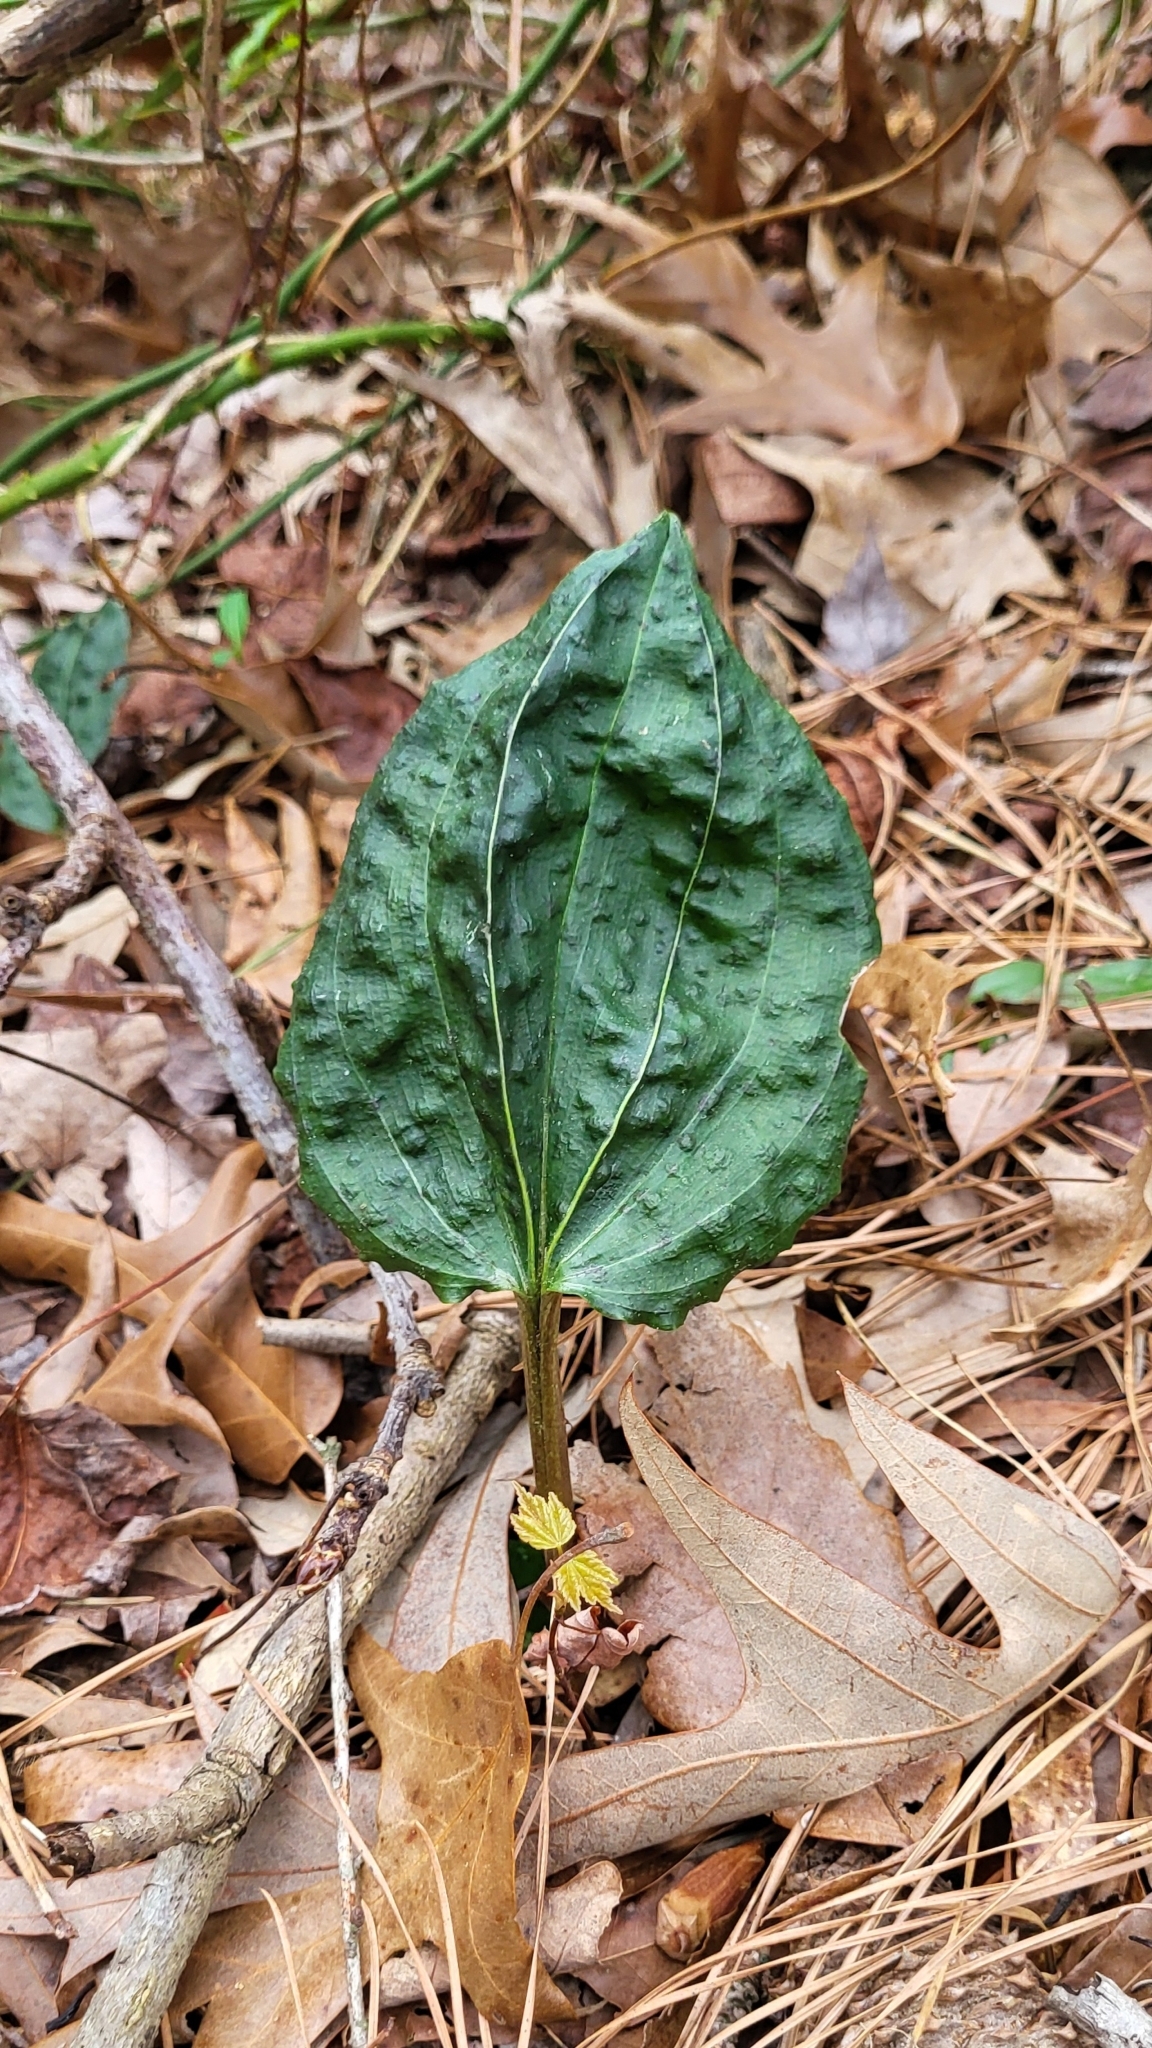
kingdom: Plantae
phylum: Tracheophyta
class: Liliopsida
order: Asparagales
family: Orchidaceae
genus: Tipularia
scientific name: Tipularia discolor
